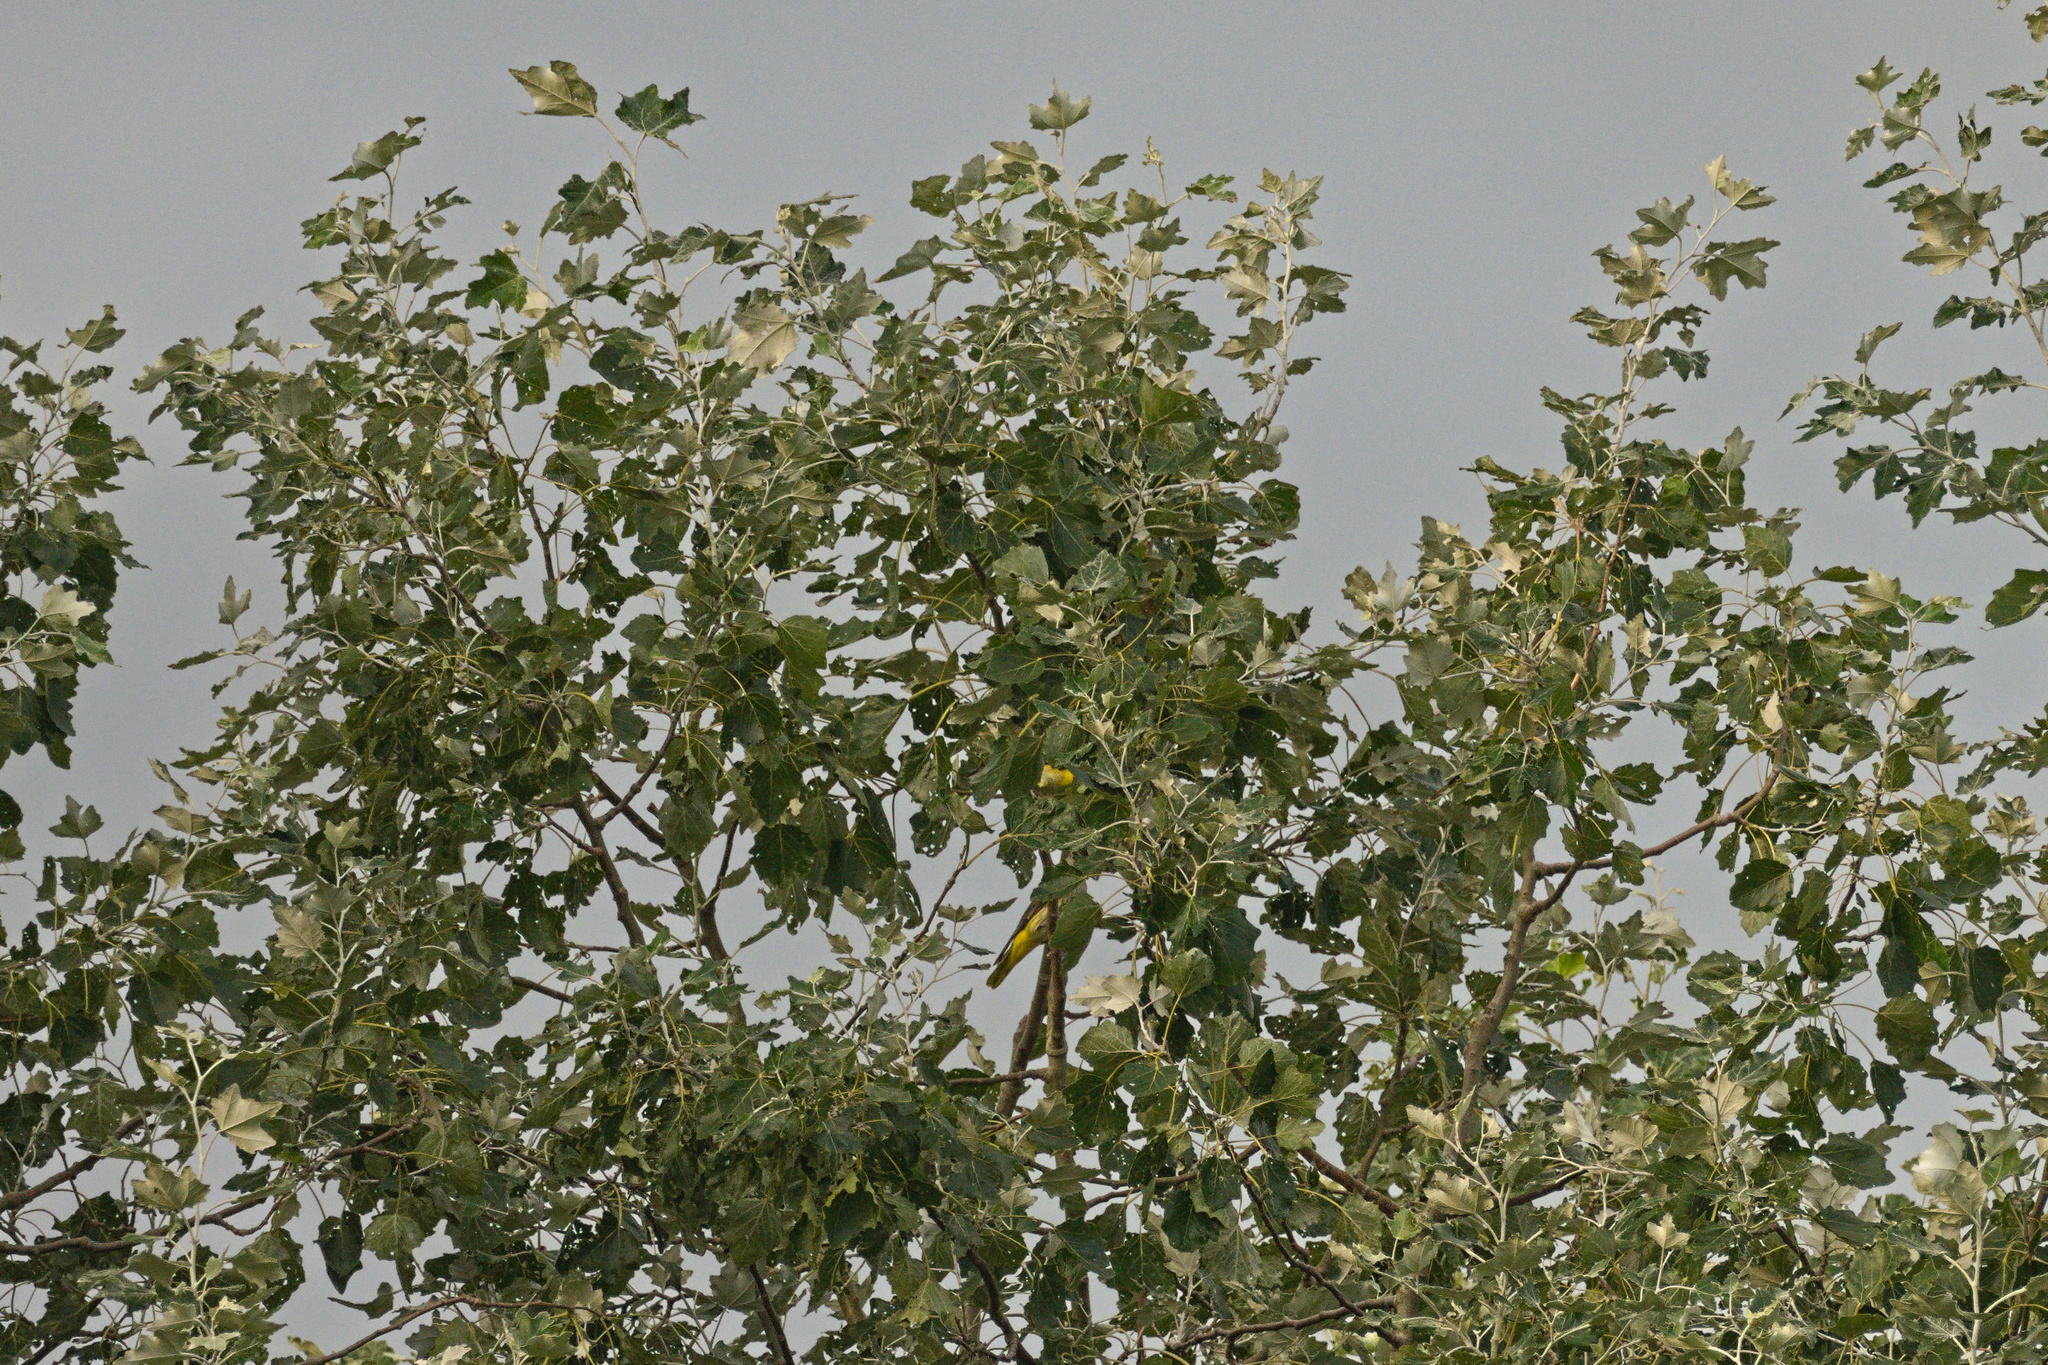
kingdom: Animalia
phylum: Chordata
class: Aves
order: Passeriformes
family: Oriolidae
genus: Oriolus
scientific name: Oriolus oriolus
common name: Eurasian golden oriole
